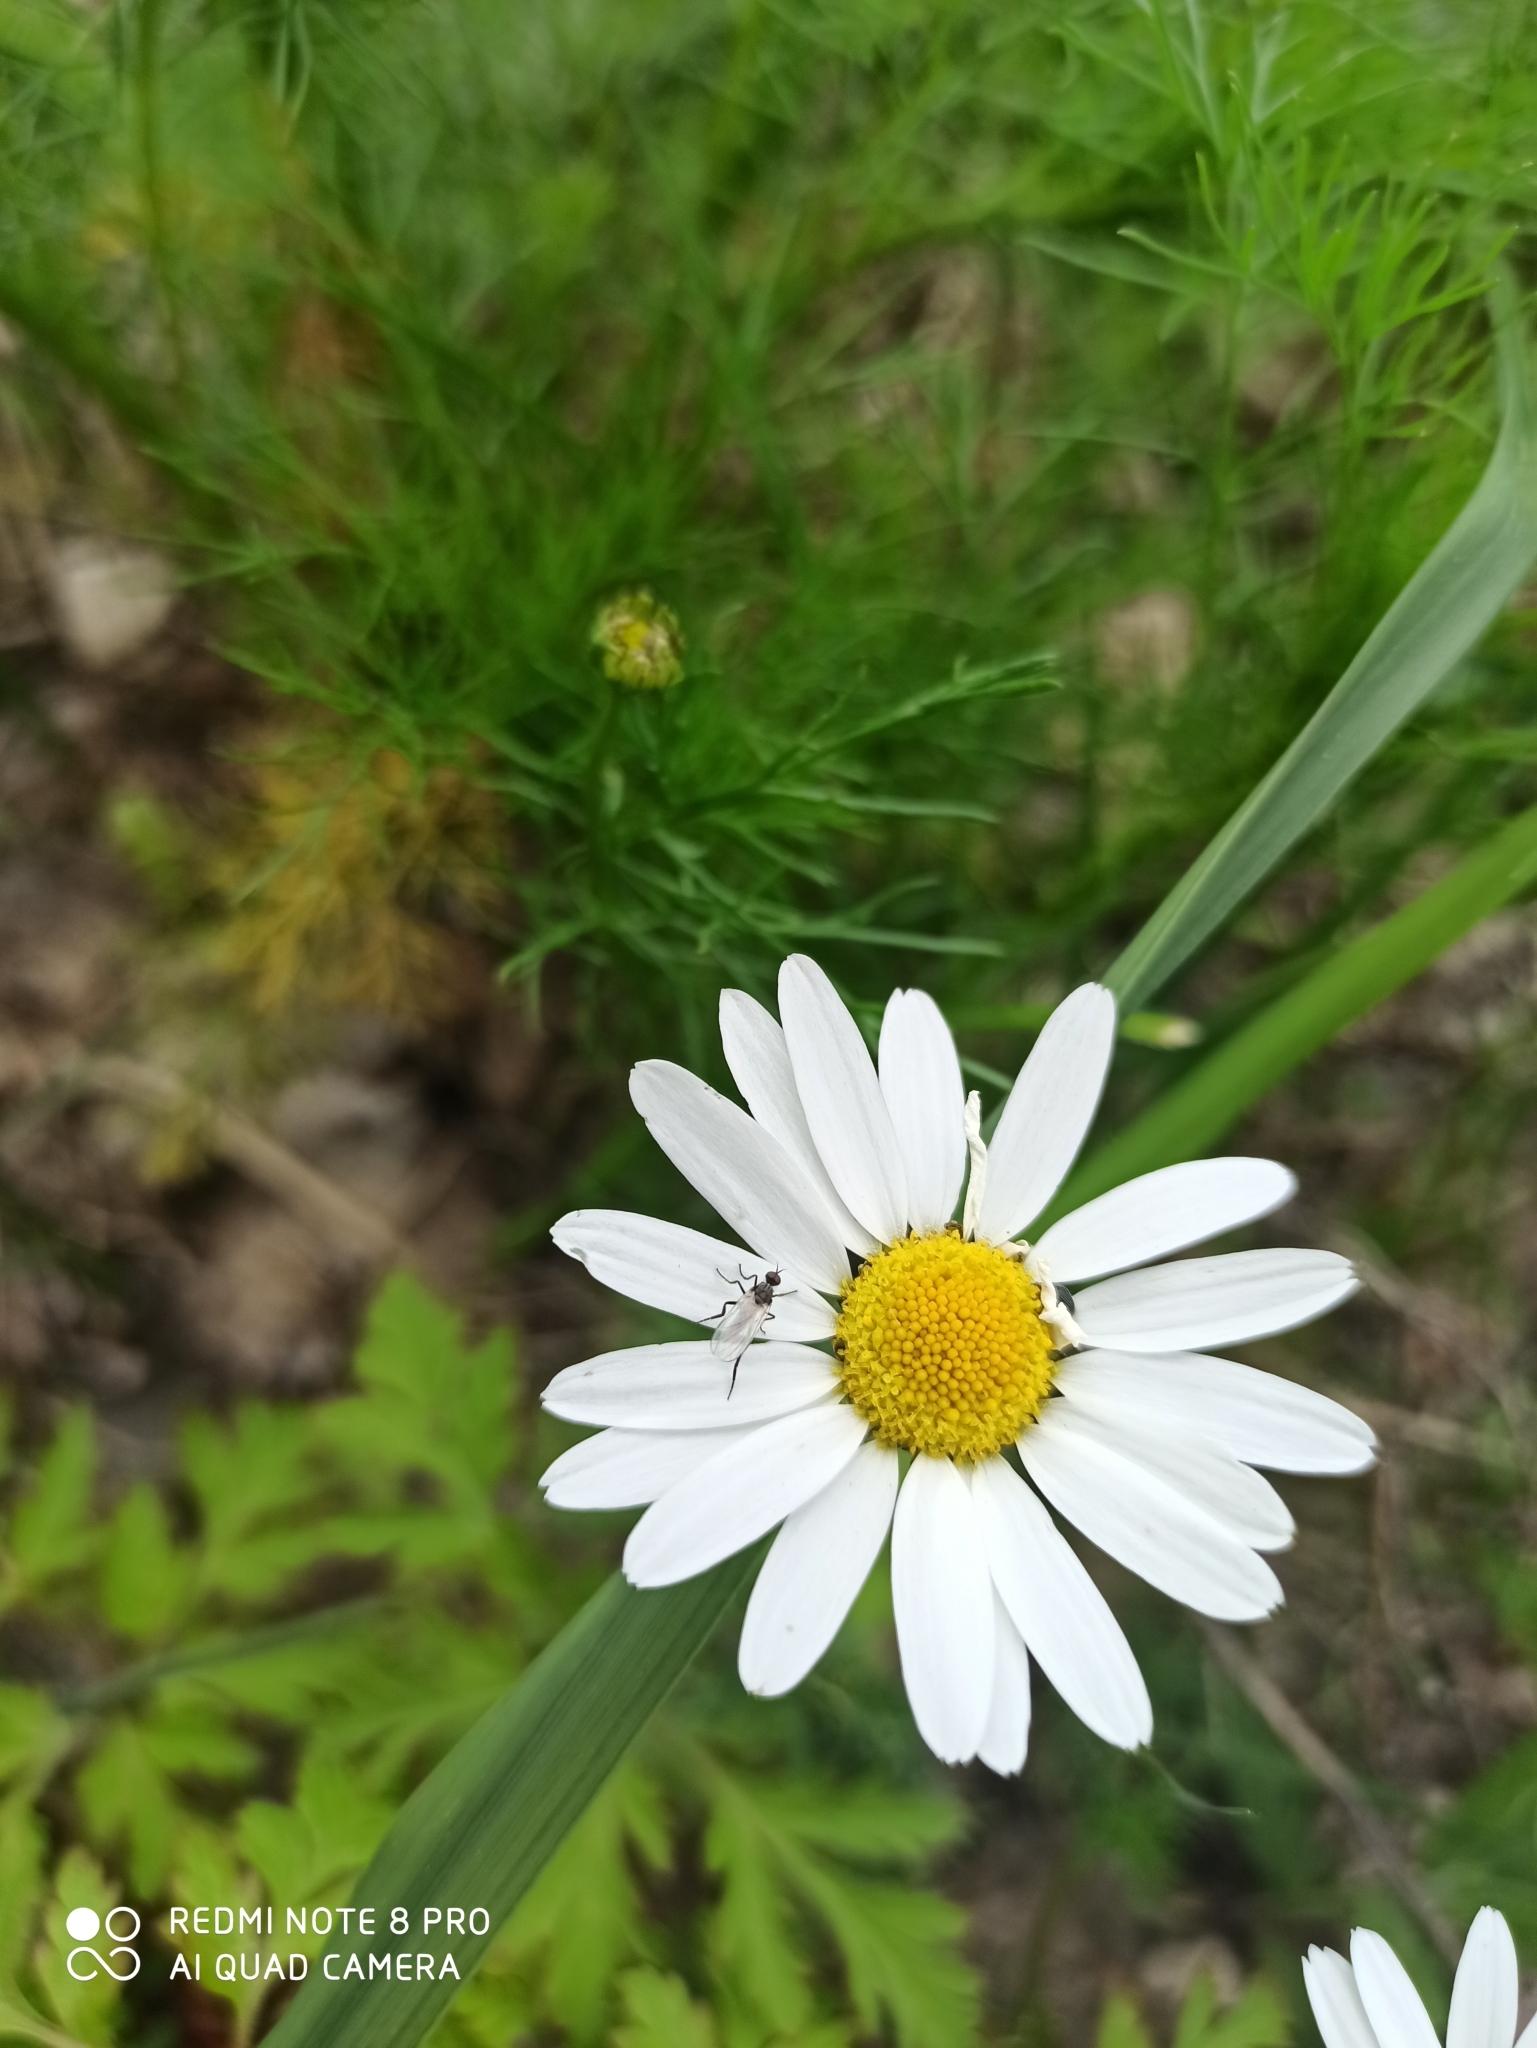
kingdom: Plantae
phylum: Tracheophyta
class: Magnoliopsida
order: Asterales
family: Asteraceae
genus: Tripleurospermum
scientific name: Tripleurospermum inodorum
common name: Scentless mayweed
